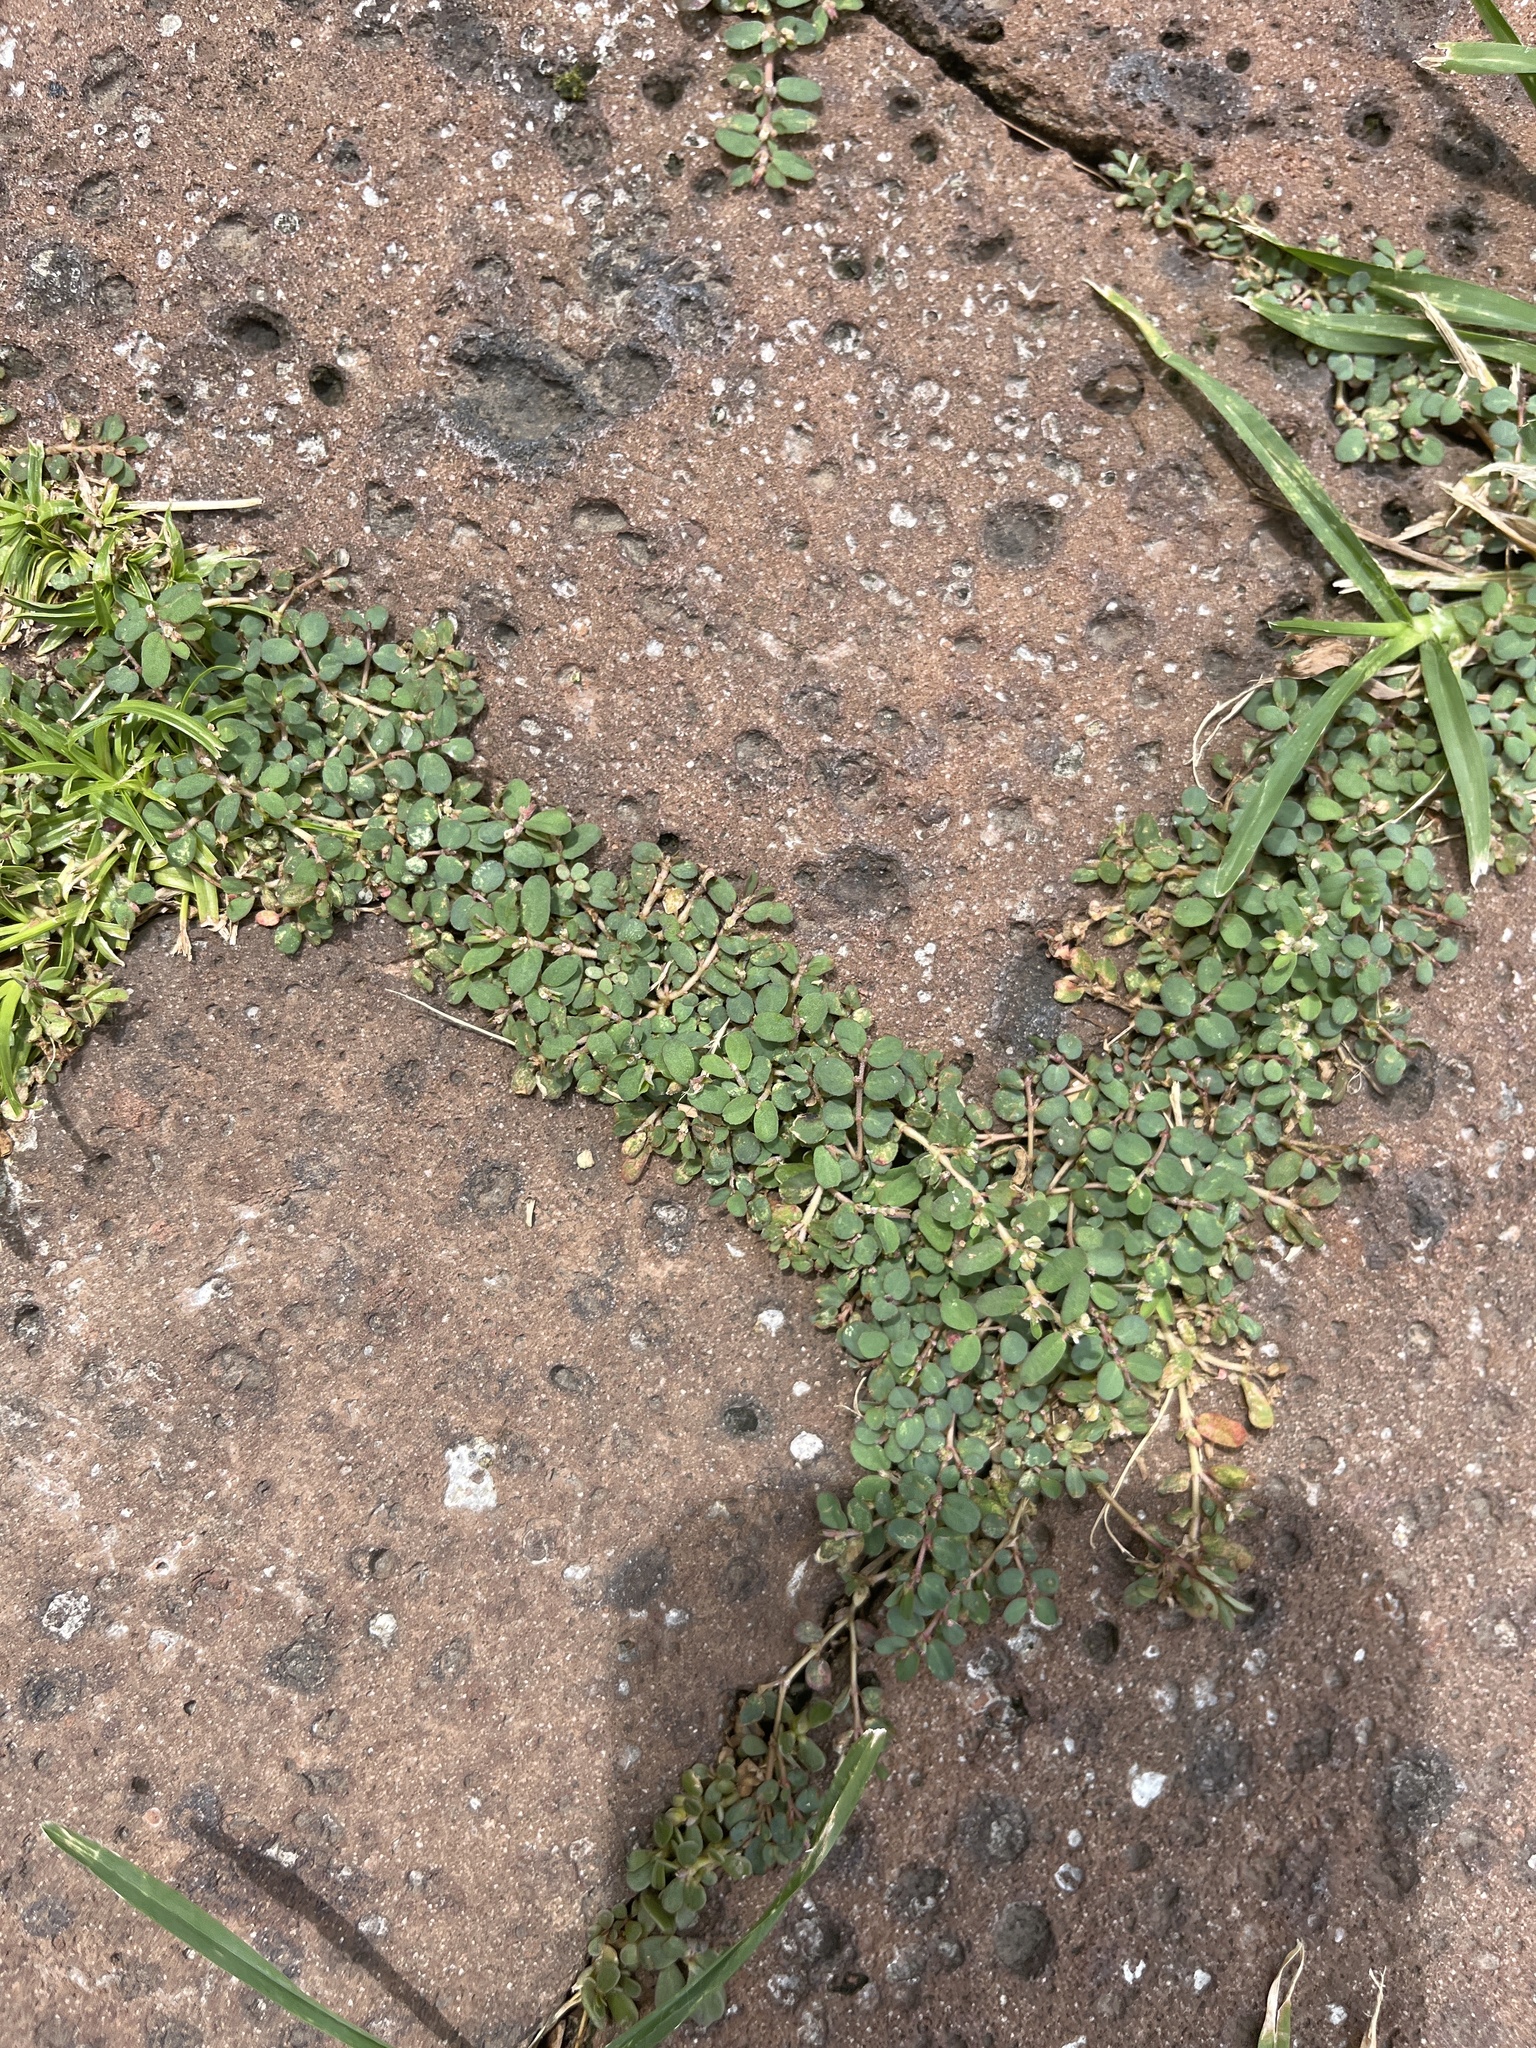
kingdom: Plantae
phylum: Tracheophyta
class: Magnoliopsida
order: Malpighiales
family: Euphorbiaceae
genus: Euphorbia
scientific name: Euphorbia prostrata
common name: Prostrate sandmat
